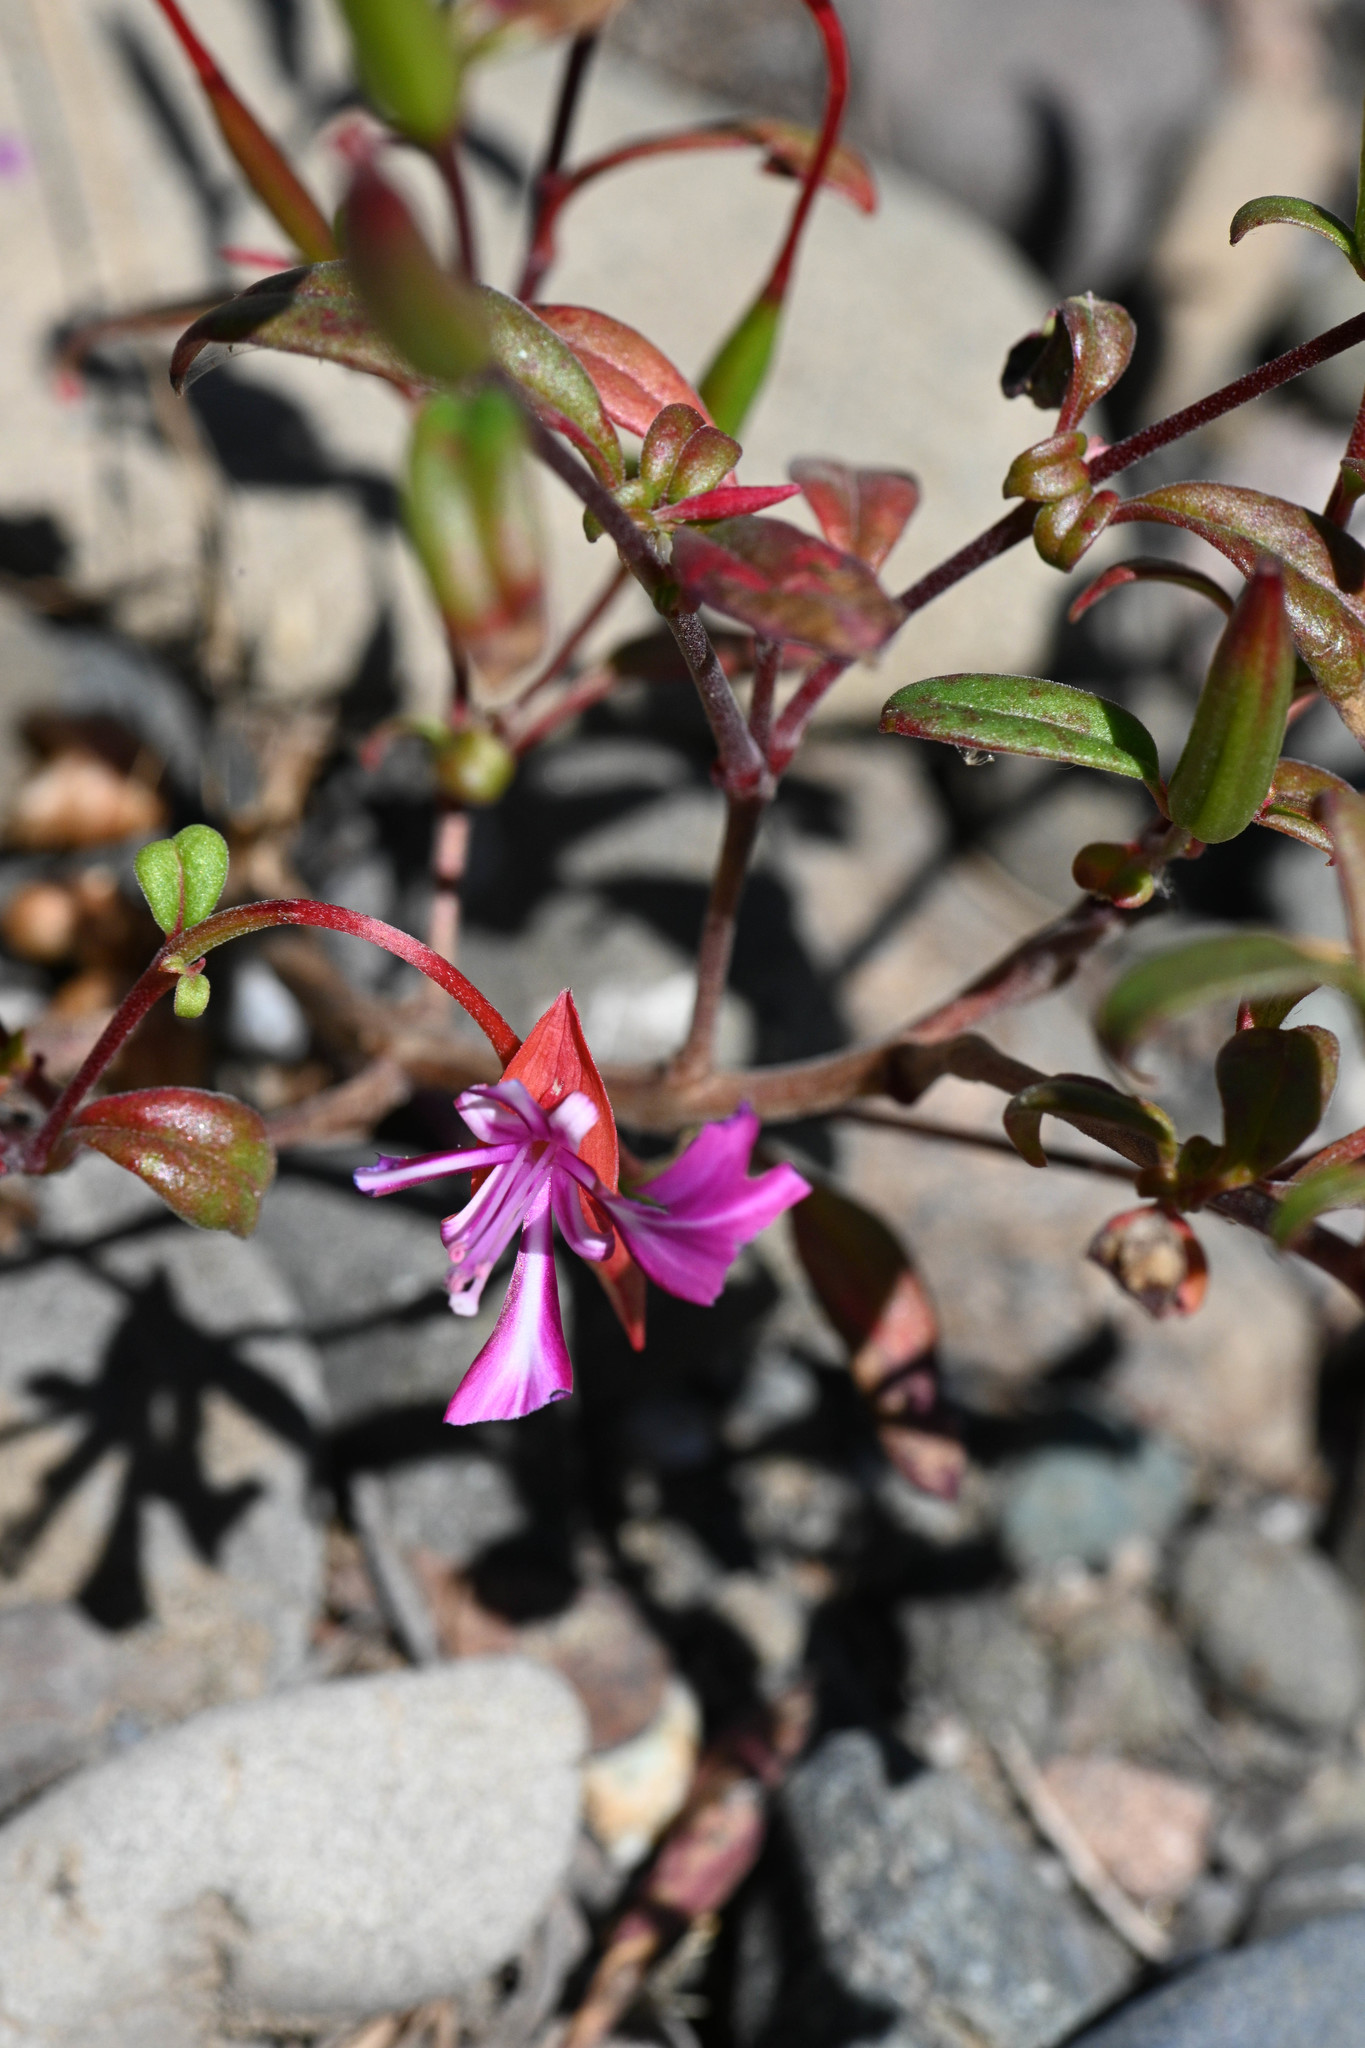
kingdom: Plantae
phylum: Tracheophyta
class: Magnoliopsida
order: Myrtales
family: Onagraceae
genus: Clarkia
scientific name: Clarkia concinna
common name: Red-ribbons
